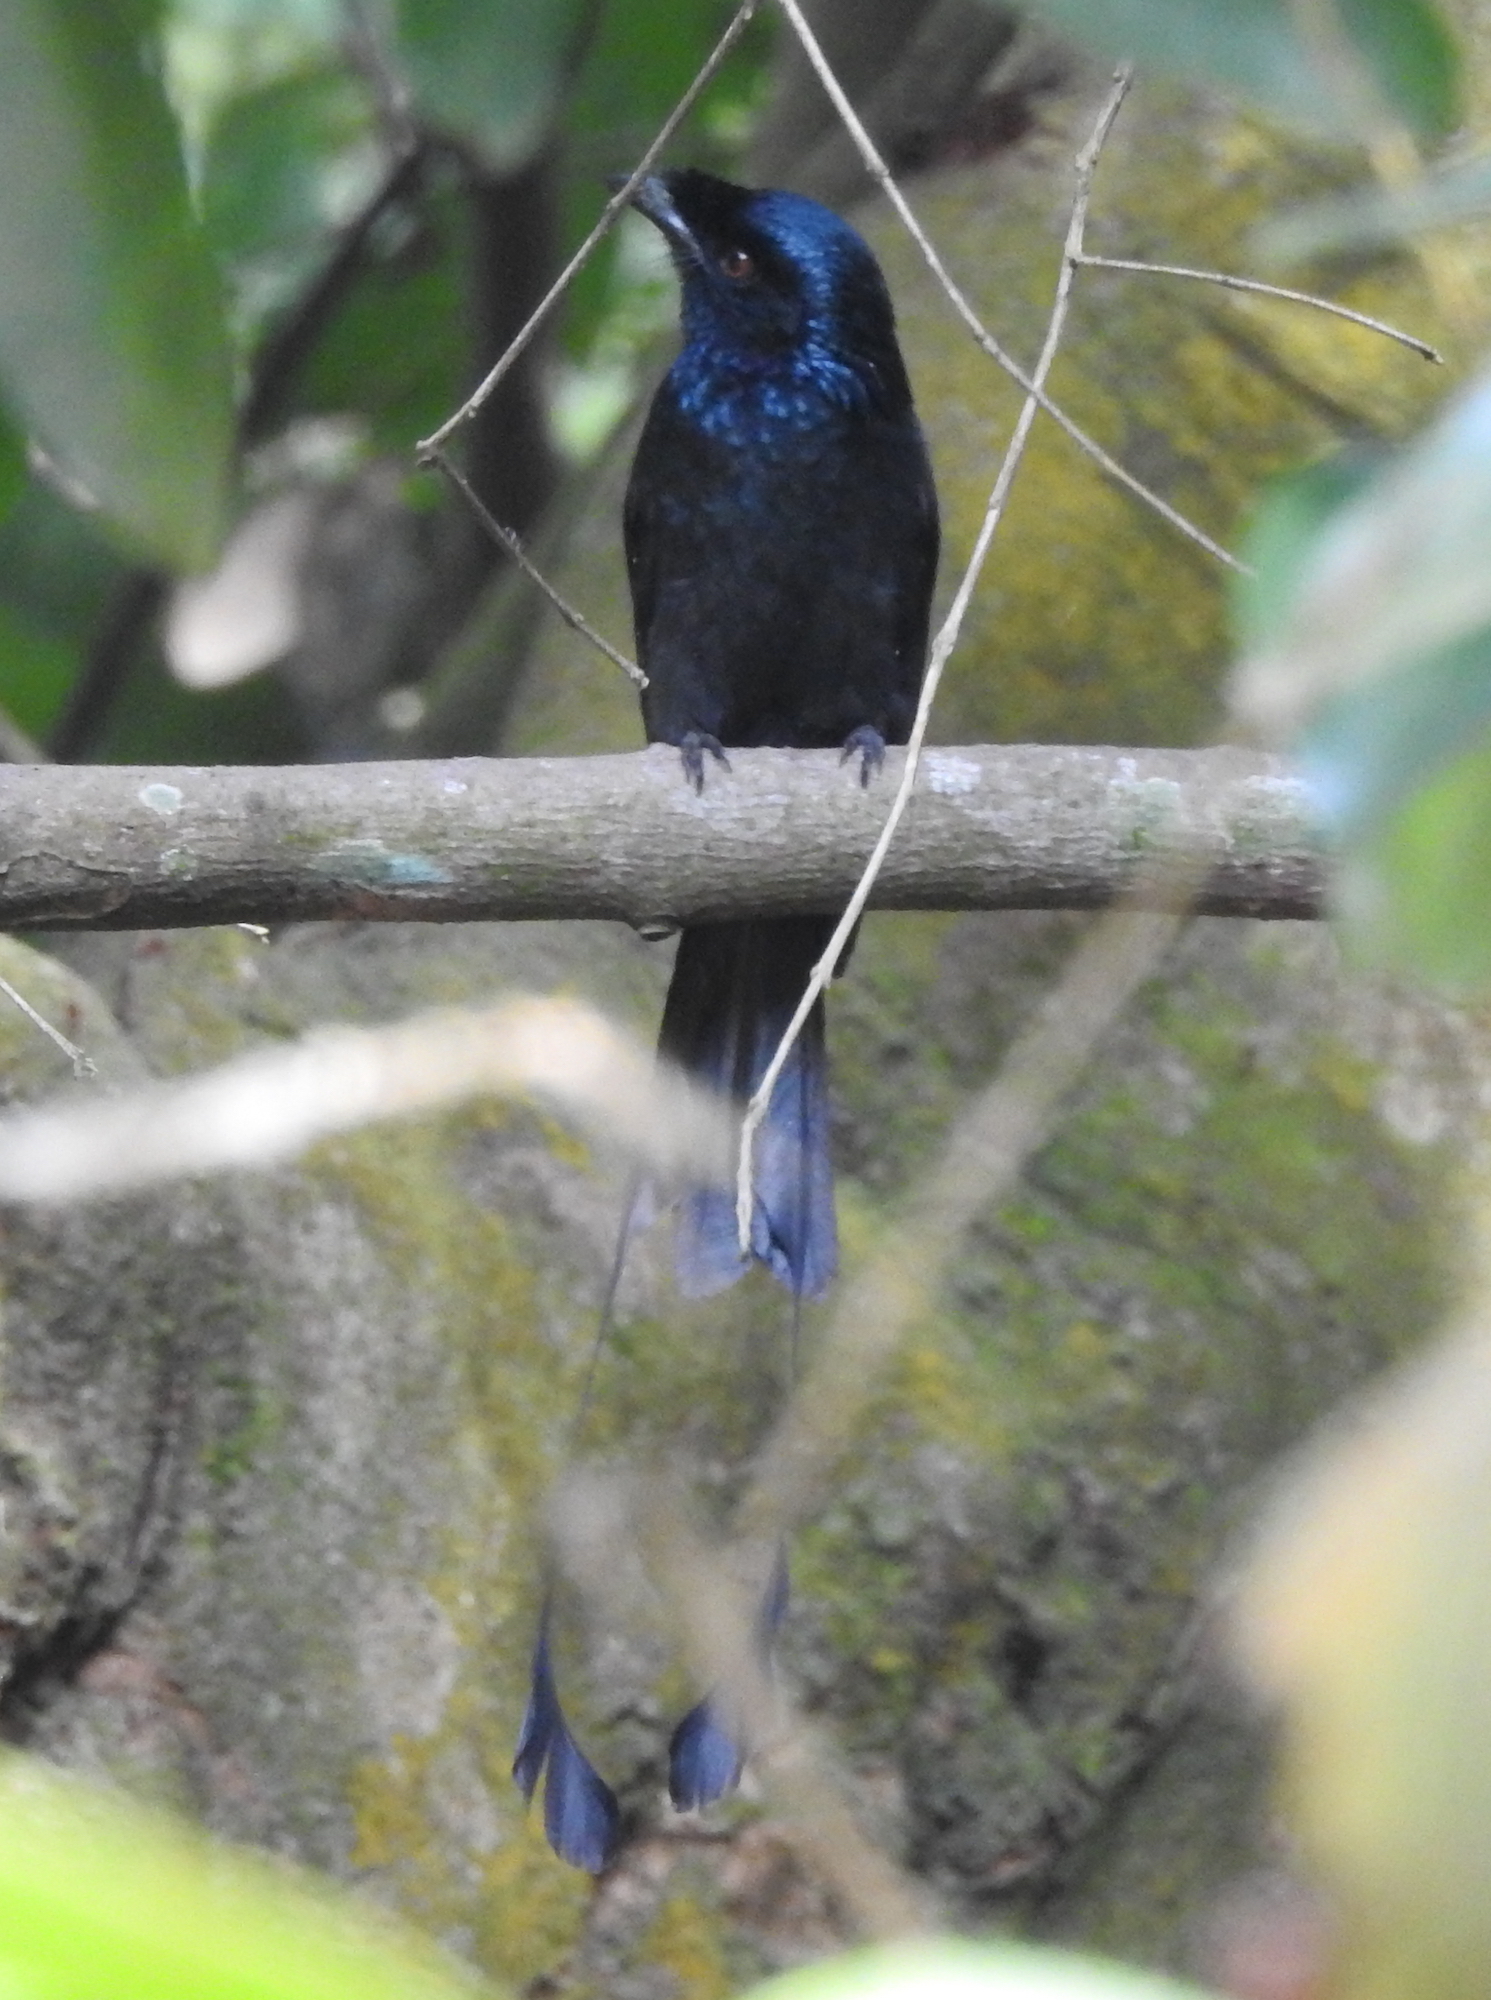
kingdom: Animalia
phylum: Chordata
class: Aves
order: Passeriformes
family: Dicruridae
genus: Dicrurus
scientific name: Dicrurus paradiseus
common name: Greater racket-tailed drongo
